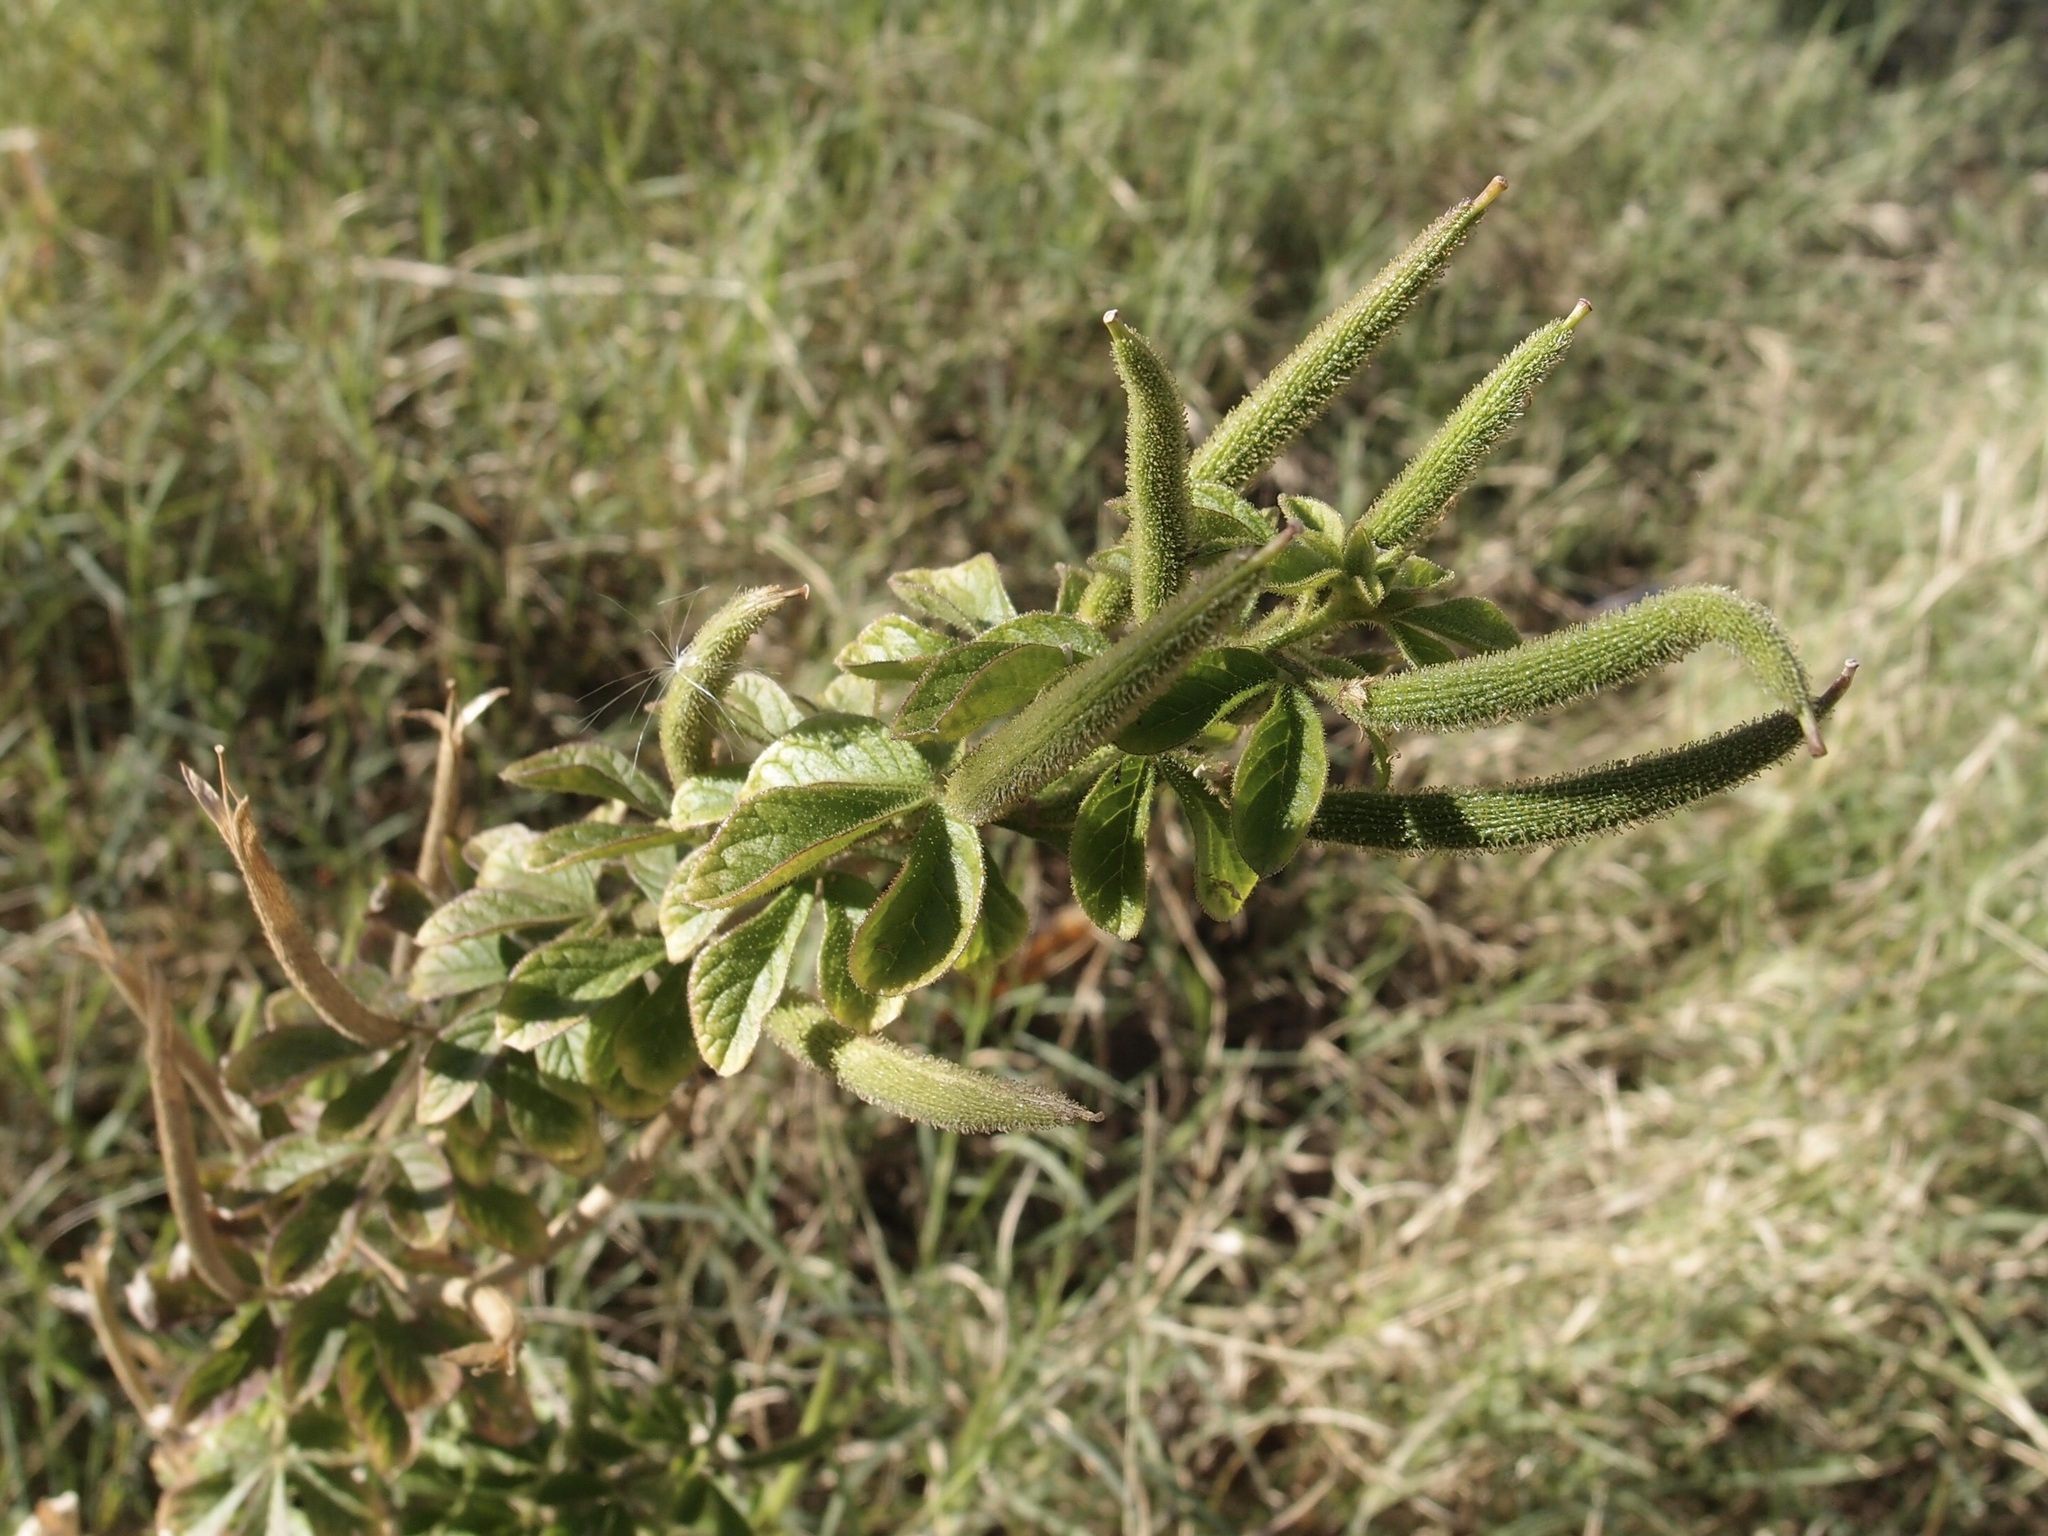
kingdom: Plantae
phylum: Tracheophyta
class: Magnoliopsida
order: Brassicales
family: Cleomaceae
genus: Arivela
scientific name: Arivela viscosa
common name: Asian spiderflower
